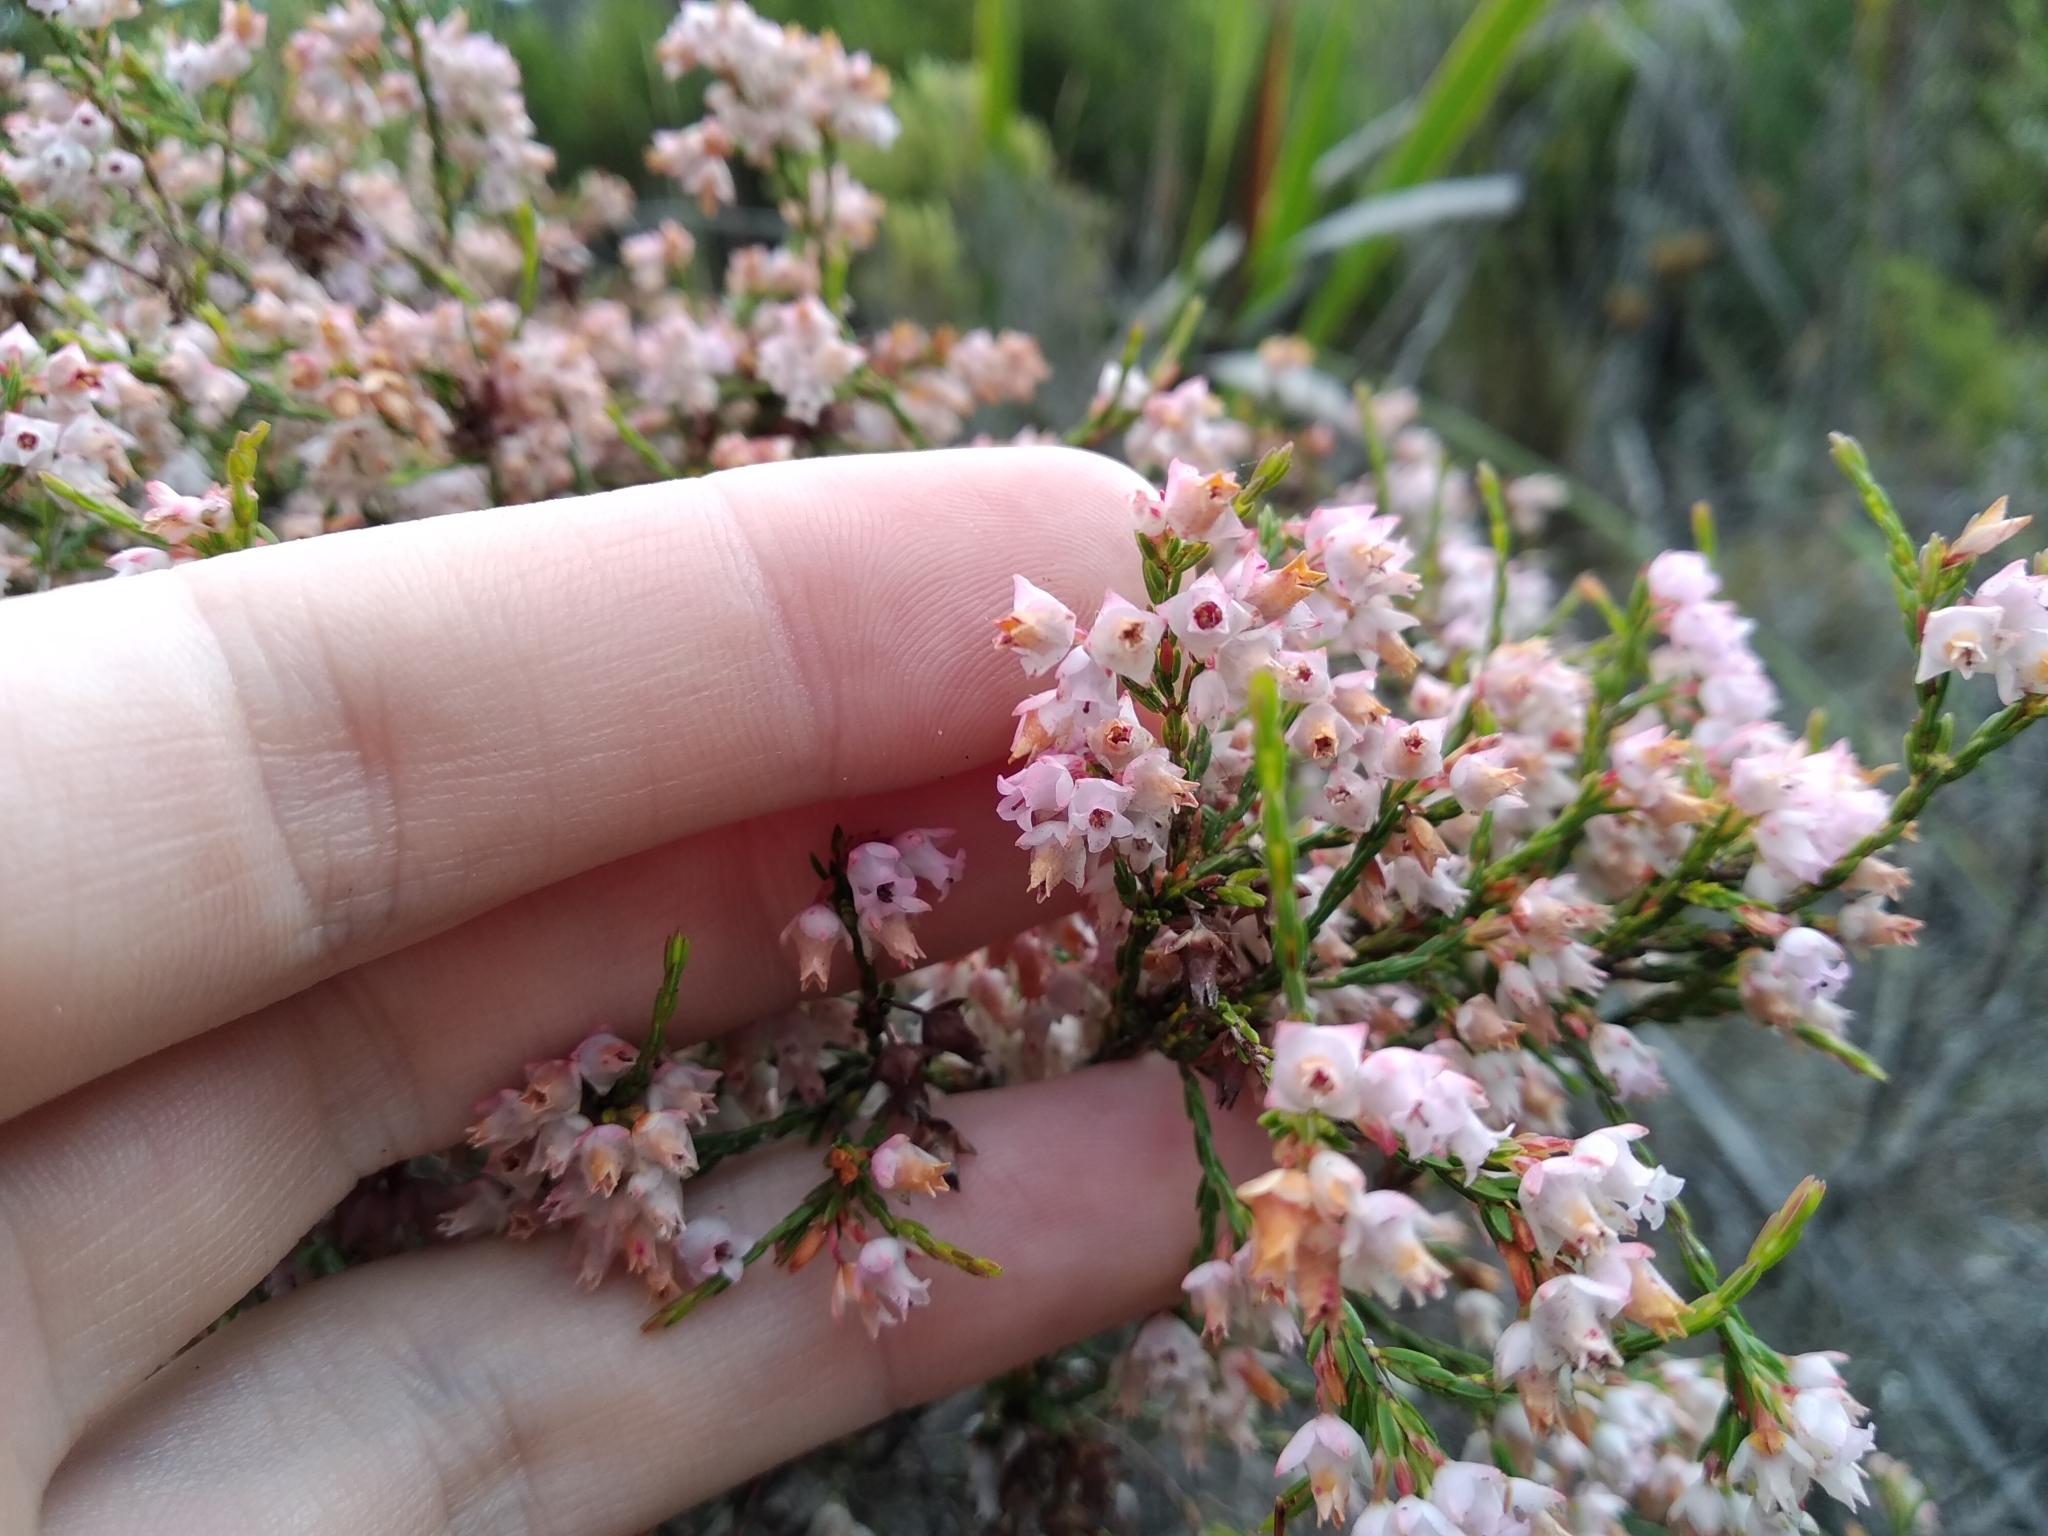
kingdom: Plantae
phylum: Tracheophyta
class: Magnoliopsida
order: Ericales
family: Ericaceae
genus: Erica
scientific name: Erica tenuifolia
